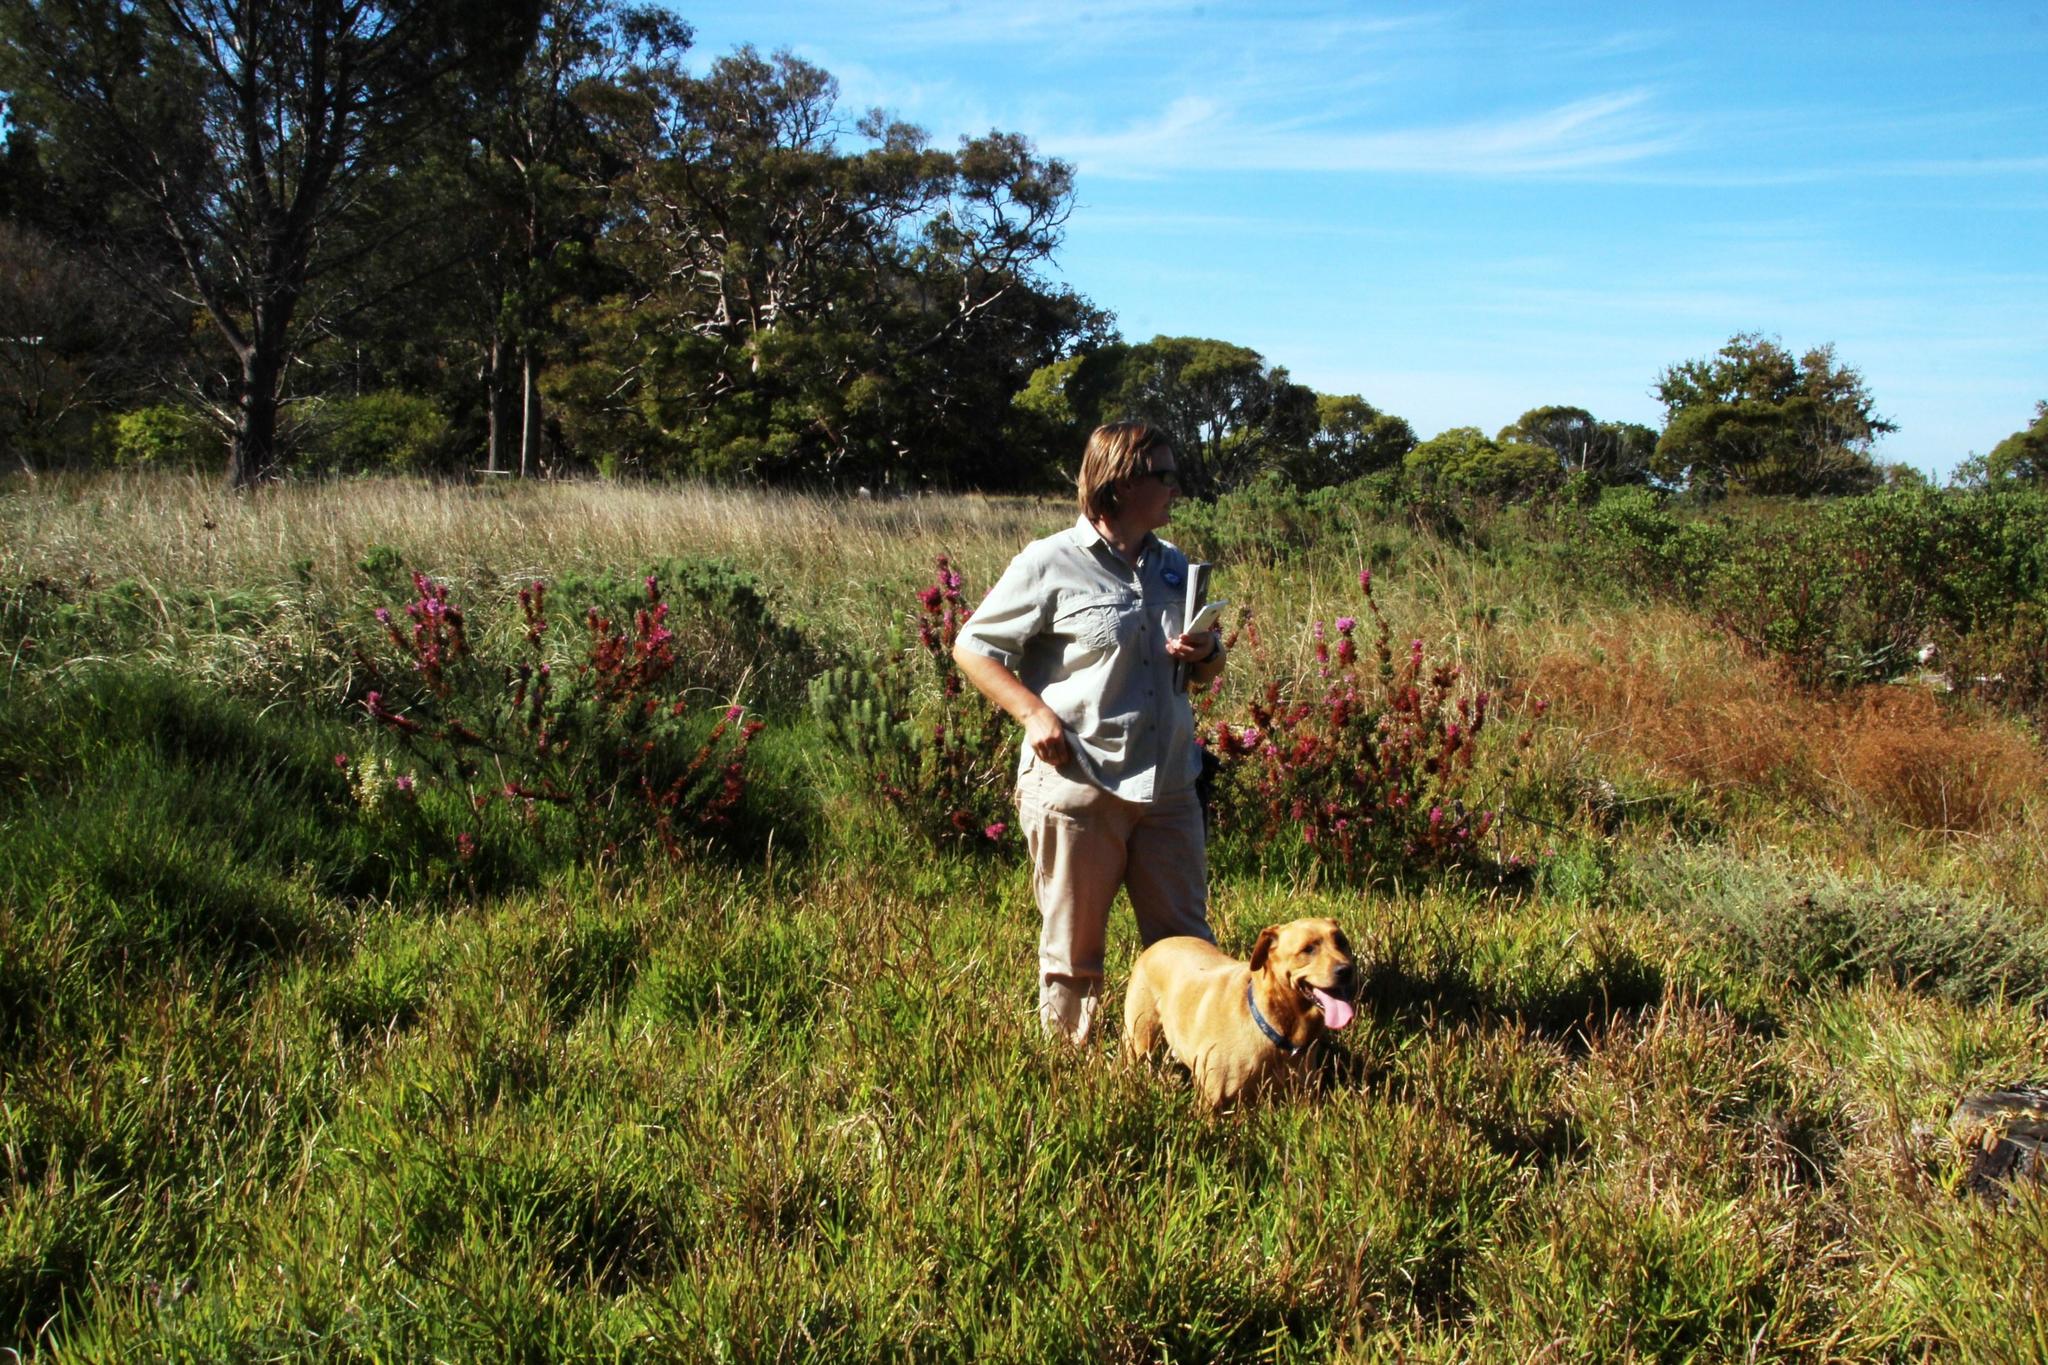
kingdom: Plantae
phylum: Tracheophyta
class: Magnoliopsida
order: Ericales
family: Ericaceae
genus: Erica
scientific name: Erica verticillata
